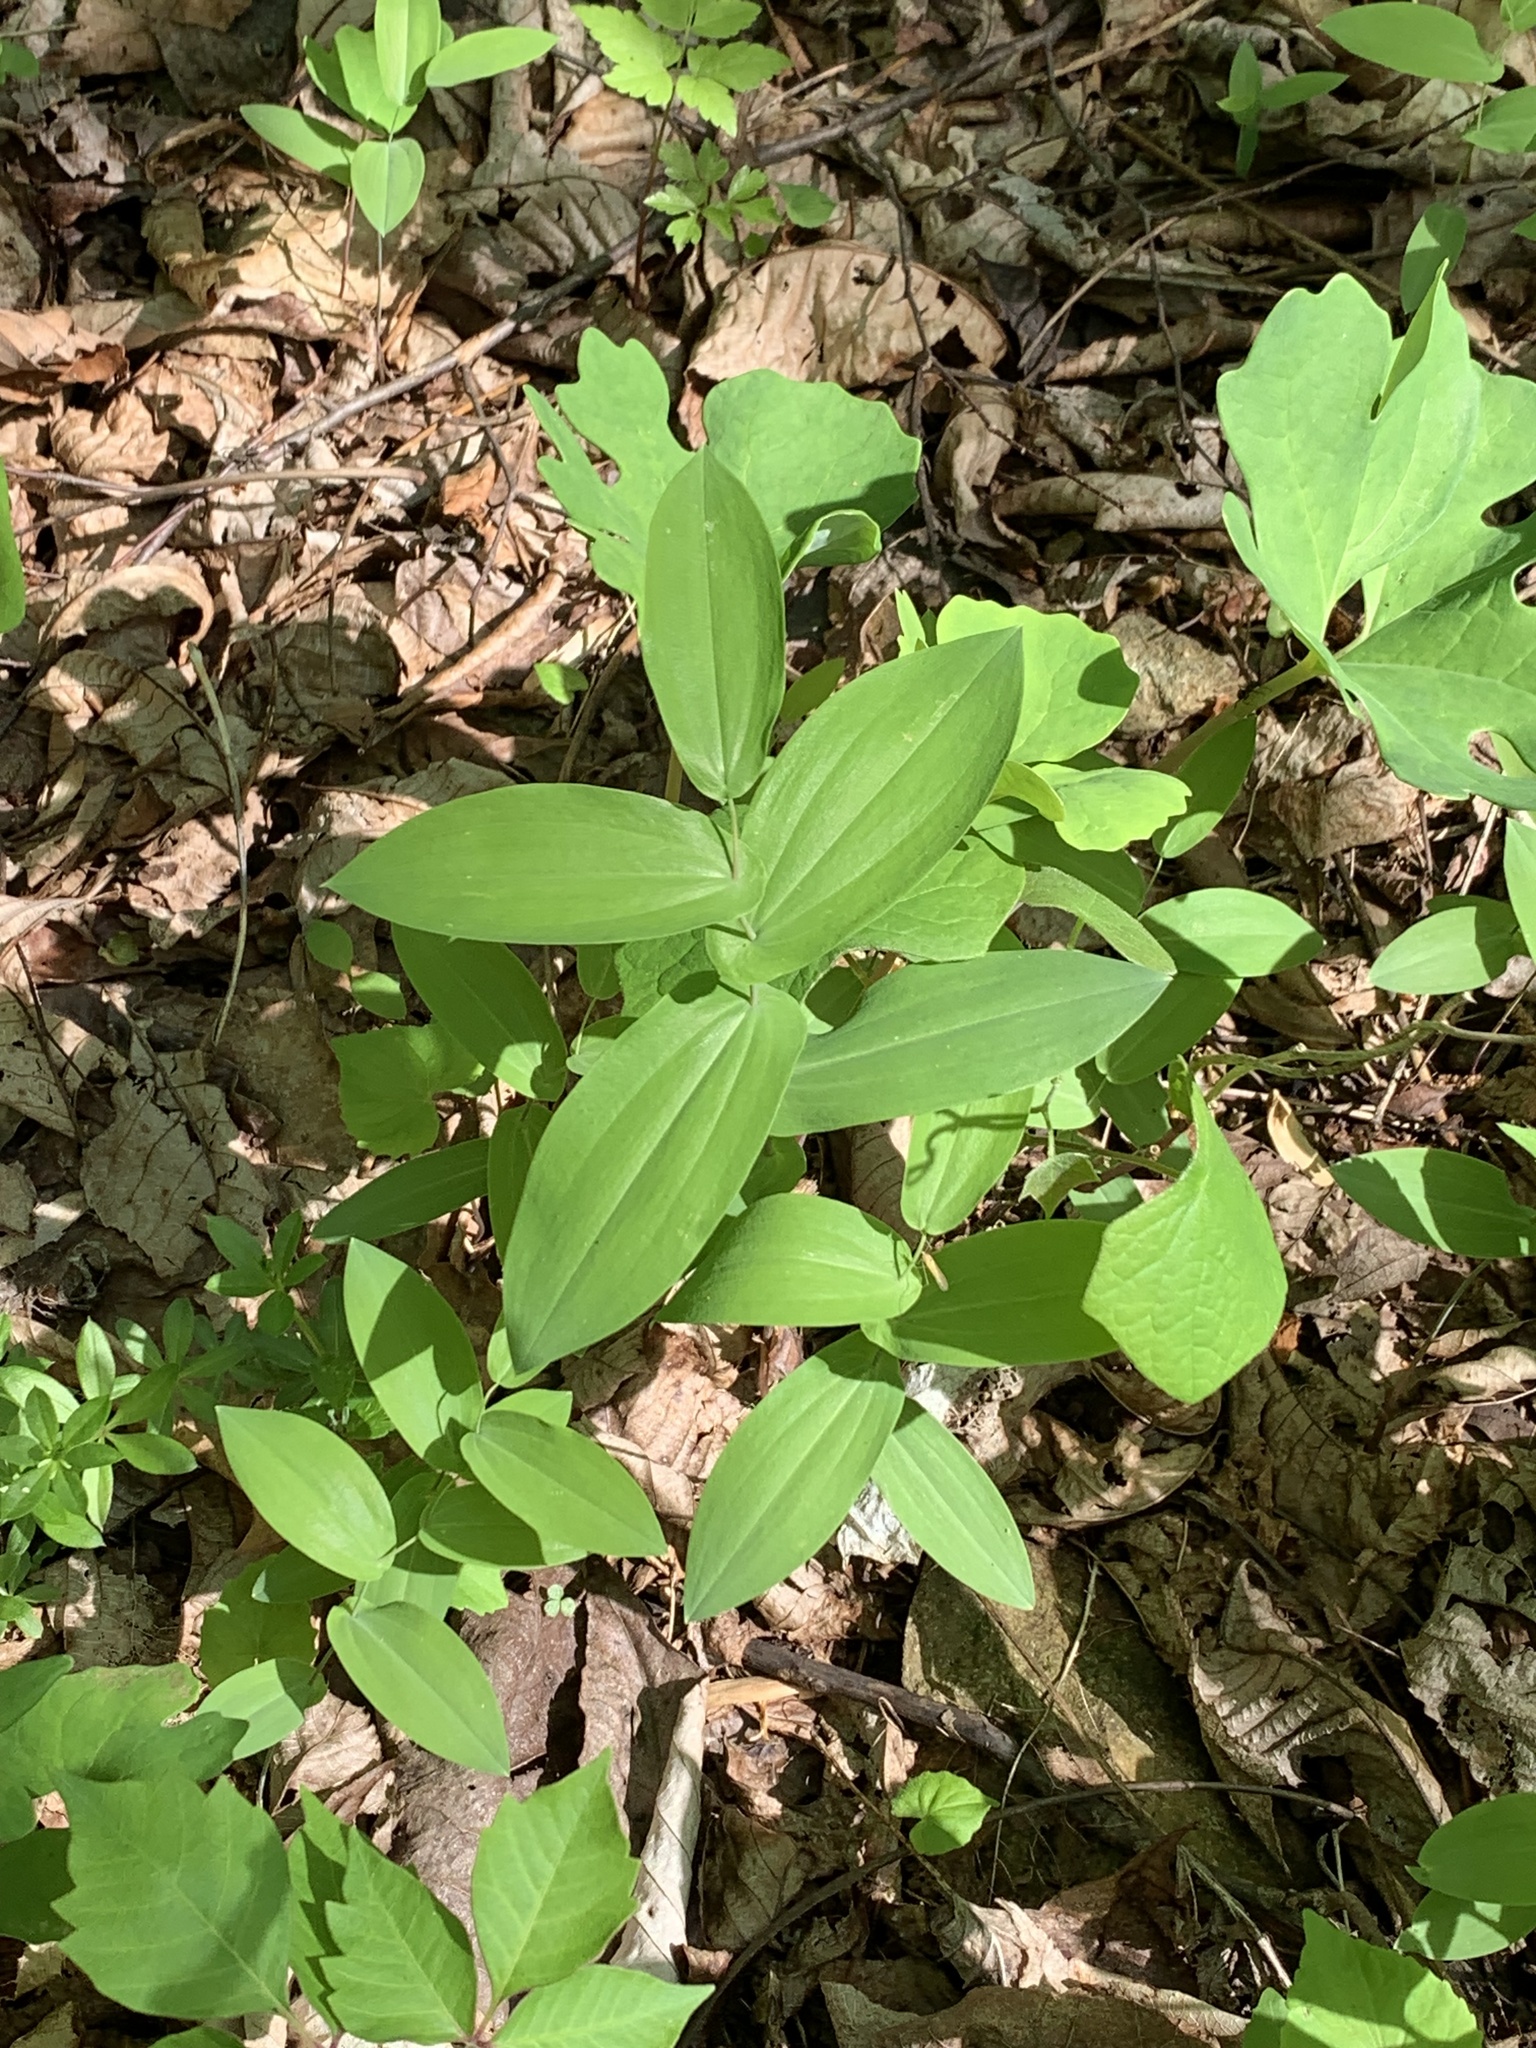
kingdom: Plantae
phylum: Tracheophyta
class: Liliopsida
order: Liliales
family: Colchicaceae
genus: Uvularia
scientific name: Uvularia perfoliata
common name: Perfoliate bellwort
